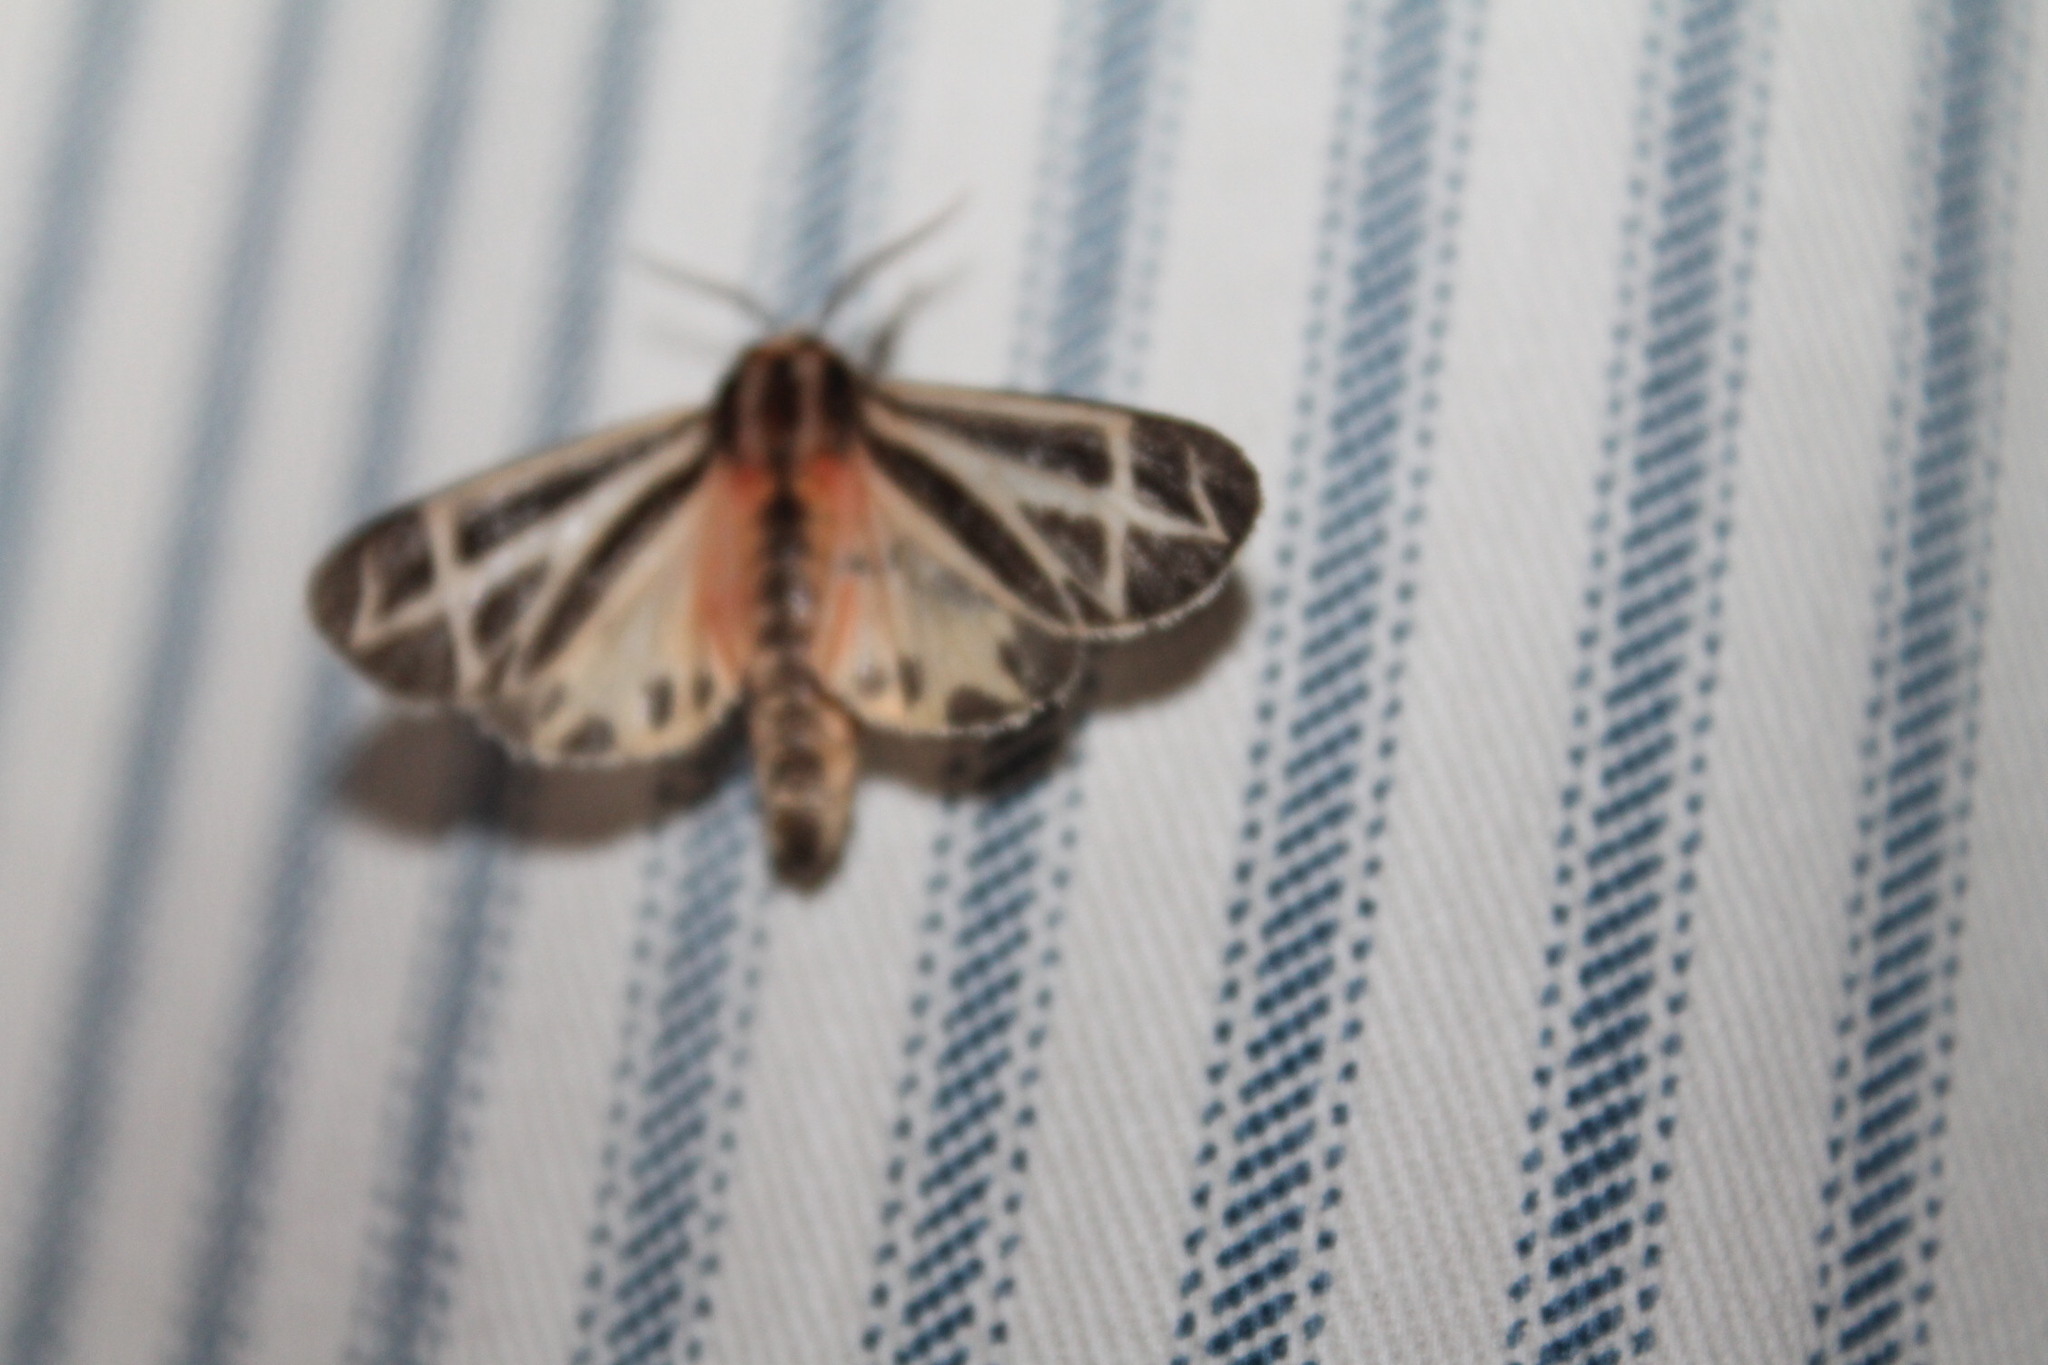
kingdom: Animalia
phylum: Arthropoda
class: Insecta
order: Lepidoptera
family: Erebidae
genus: Apantesis
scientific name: Apantesis phalerata
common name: Harnessed tiger moth
